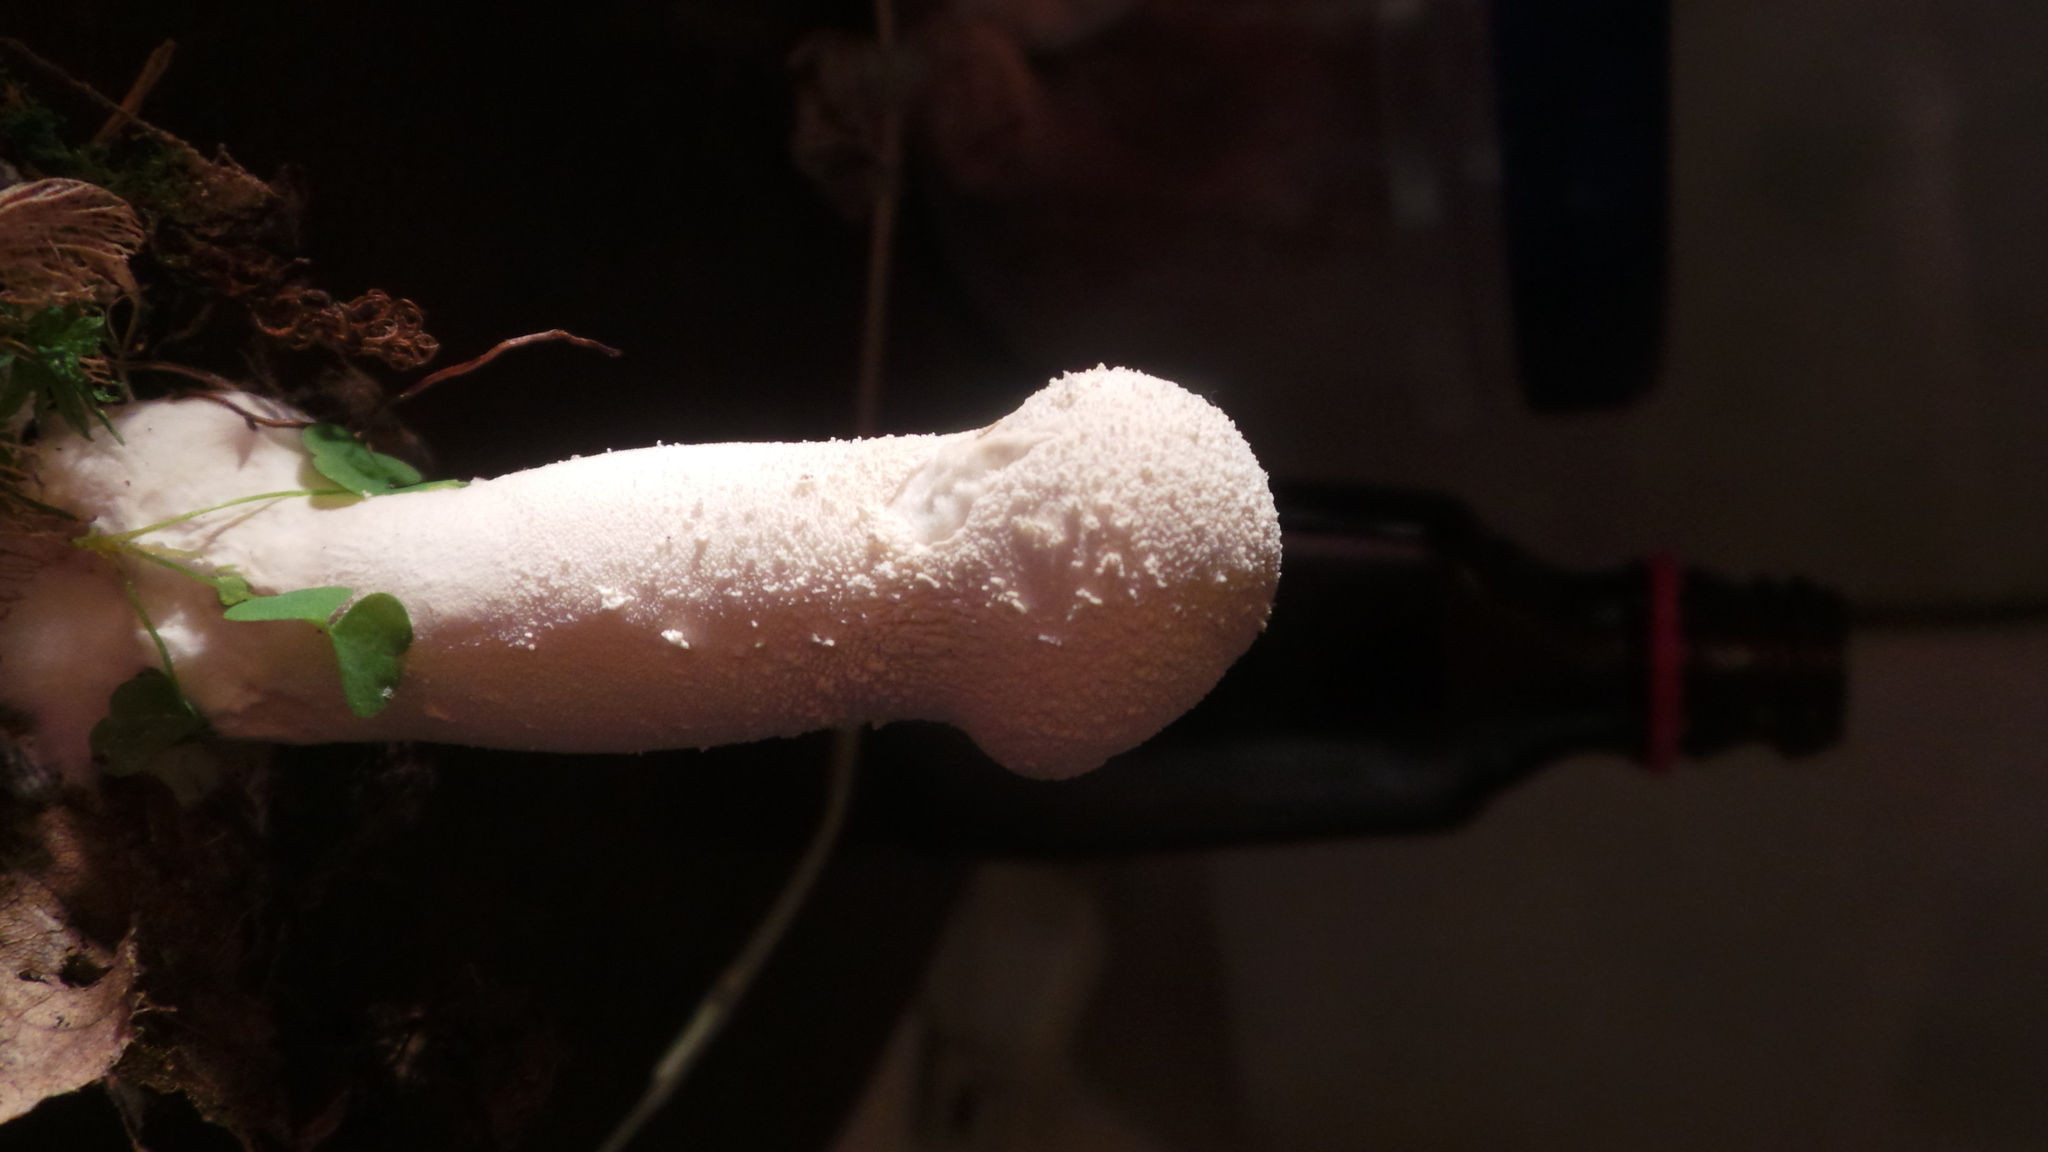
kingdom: Fungi
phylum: Basidiomycota
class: Agaricomycetes
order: Agaricales
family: Lycoperdaceae
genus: Lycoperdon
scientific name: Lycoperdon excipuliforme
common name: Pestle puffball
